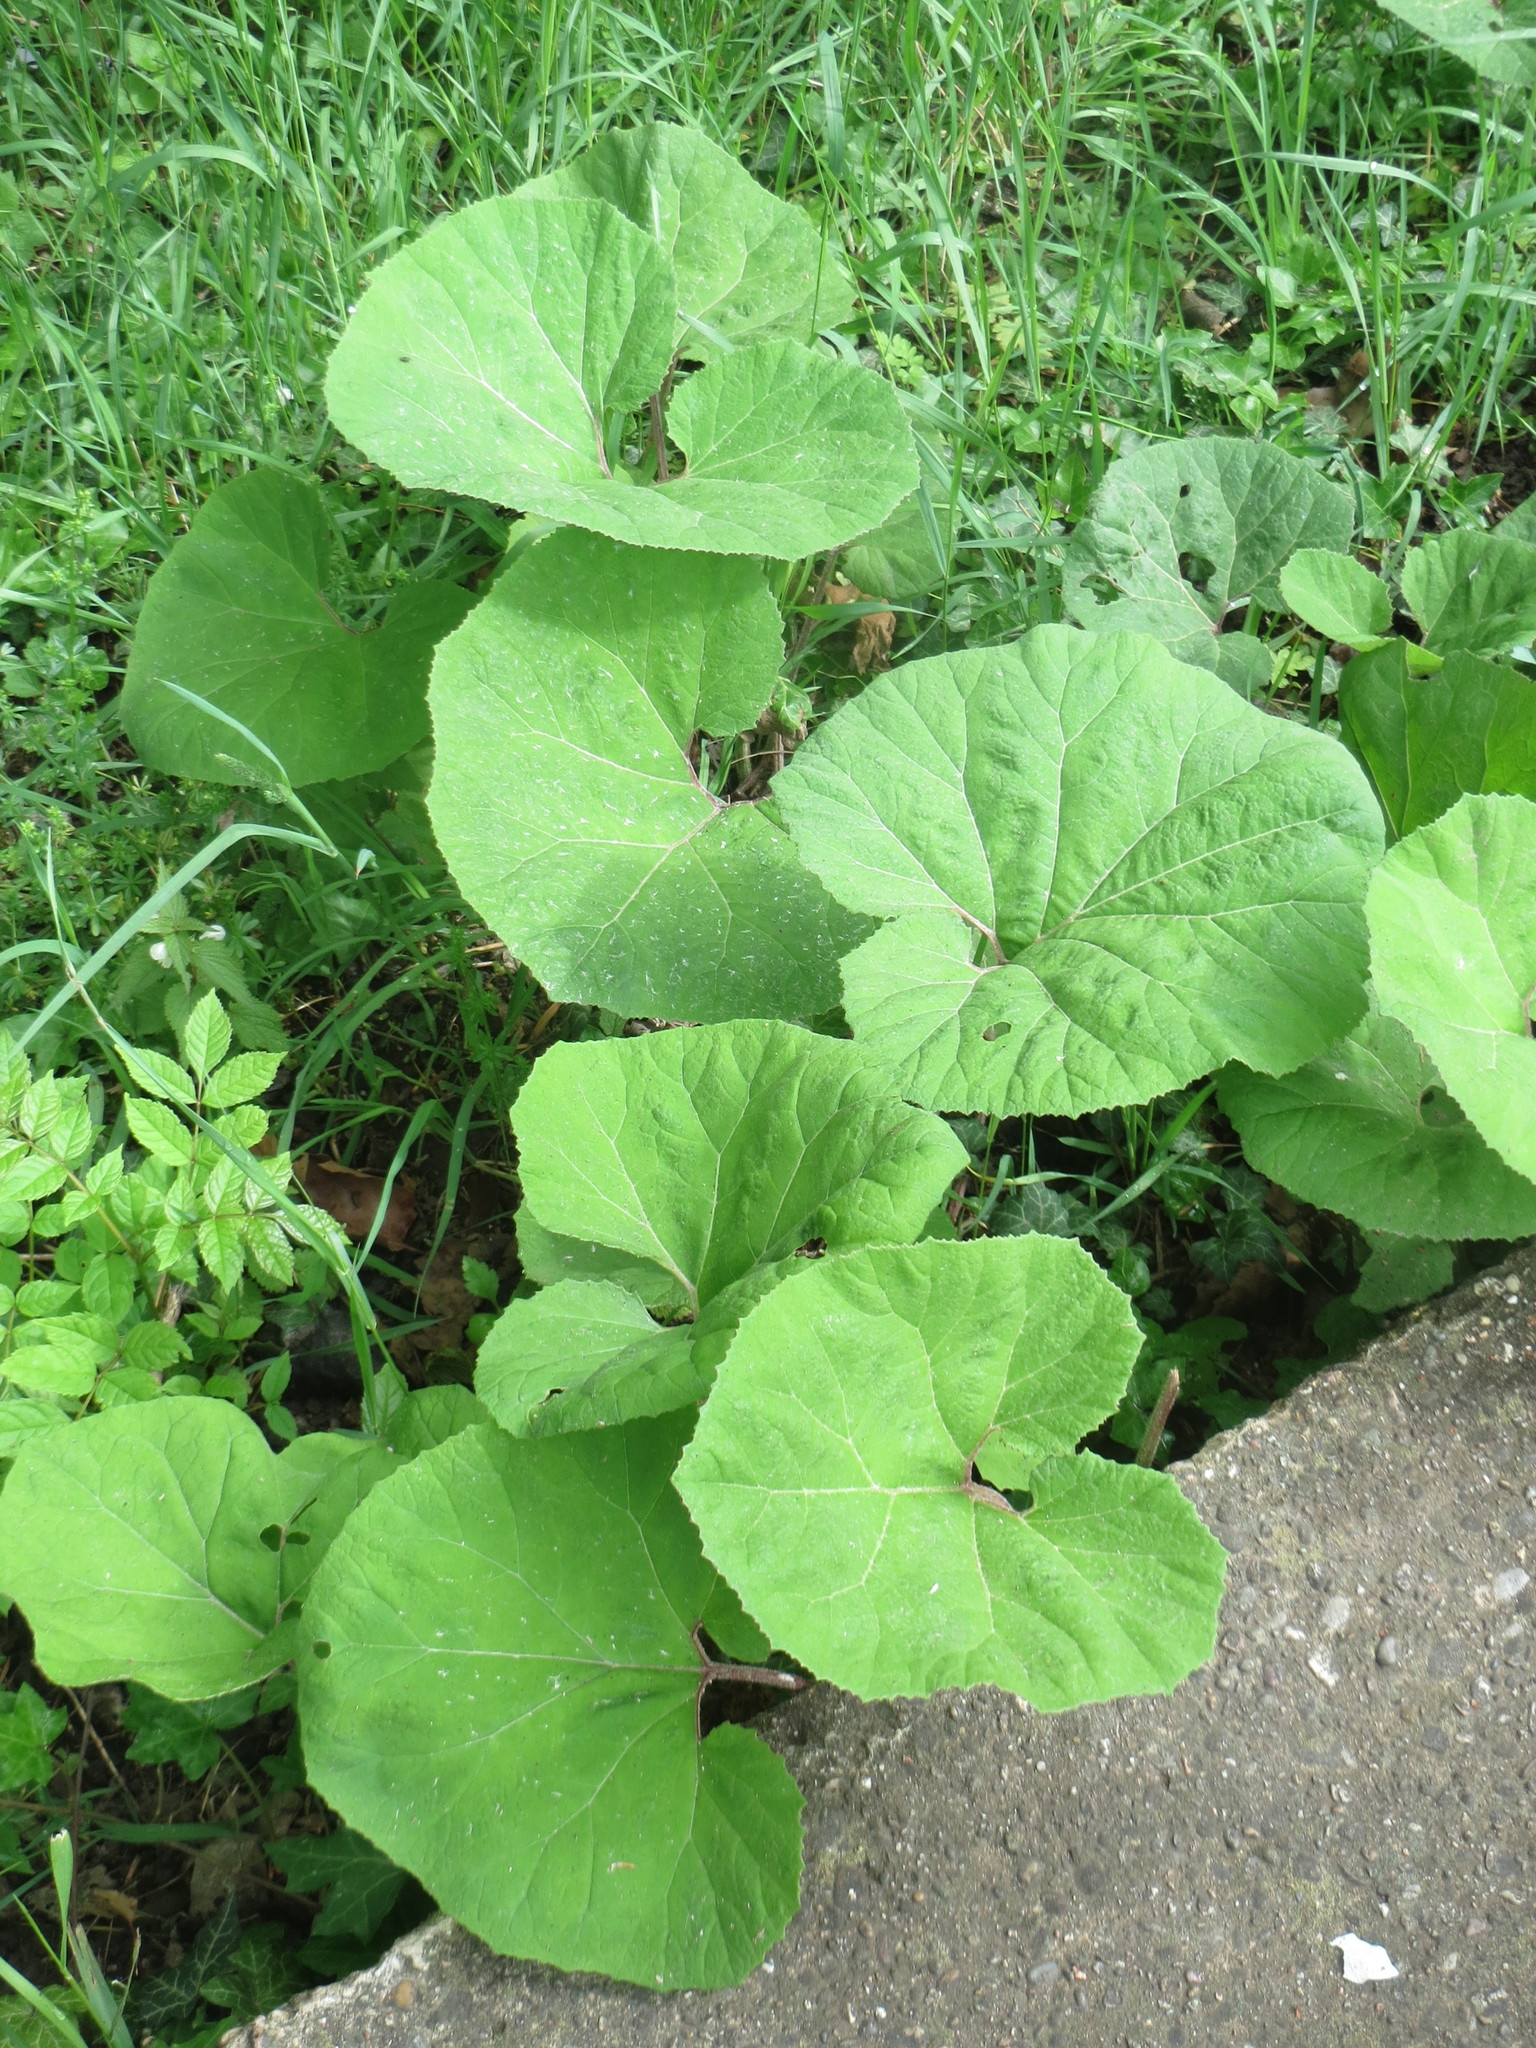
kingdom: Plantae
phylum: Tracheophyta
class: Magnoliopsida
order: Asterales
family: Asteraceae
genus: Petasites
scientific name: Petasites hybridus
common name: Butterbur
